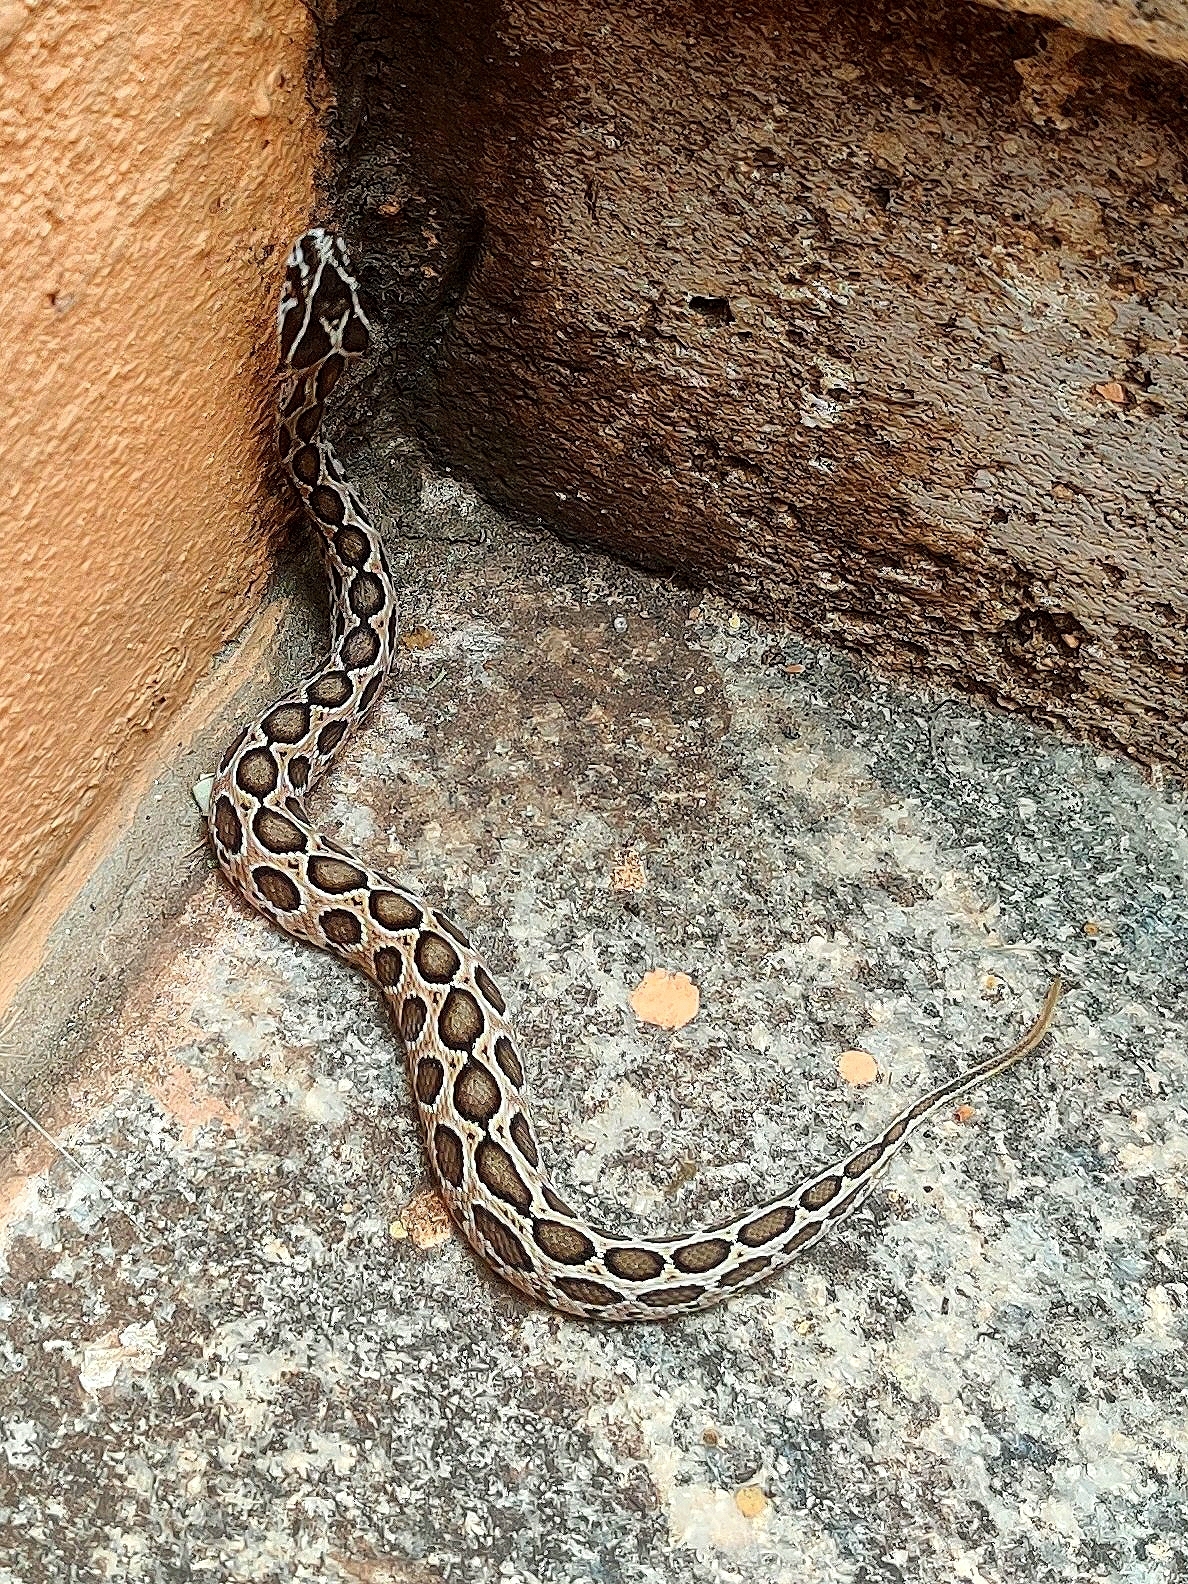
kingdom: Animalia
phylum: Chordata
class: Squamata
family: Viperidae
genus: Daboia
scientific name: Daboia russelii
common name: Western russel’s viper
